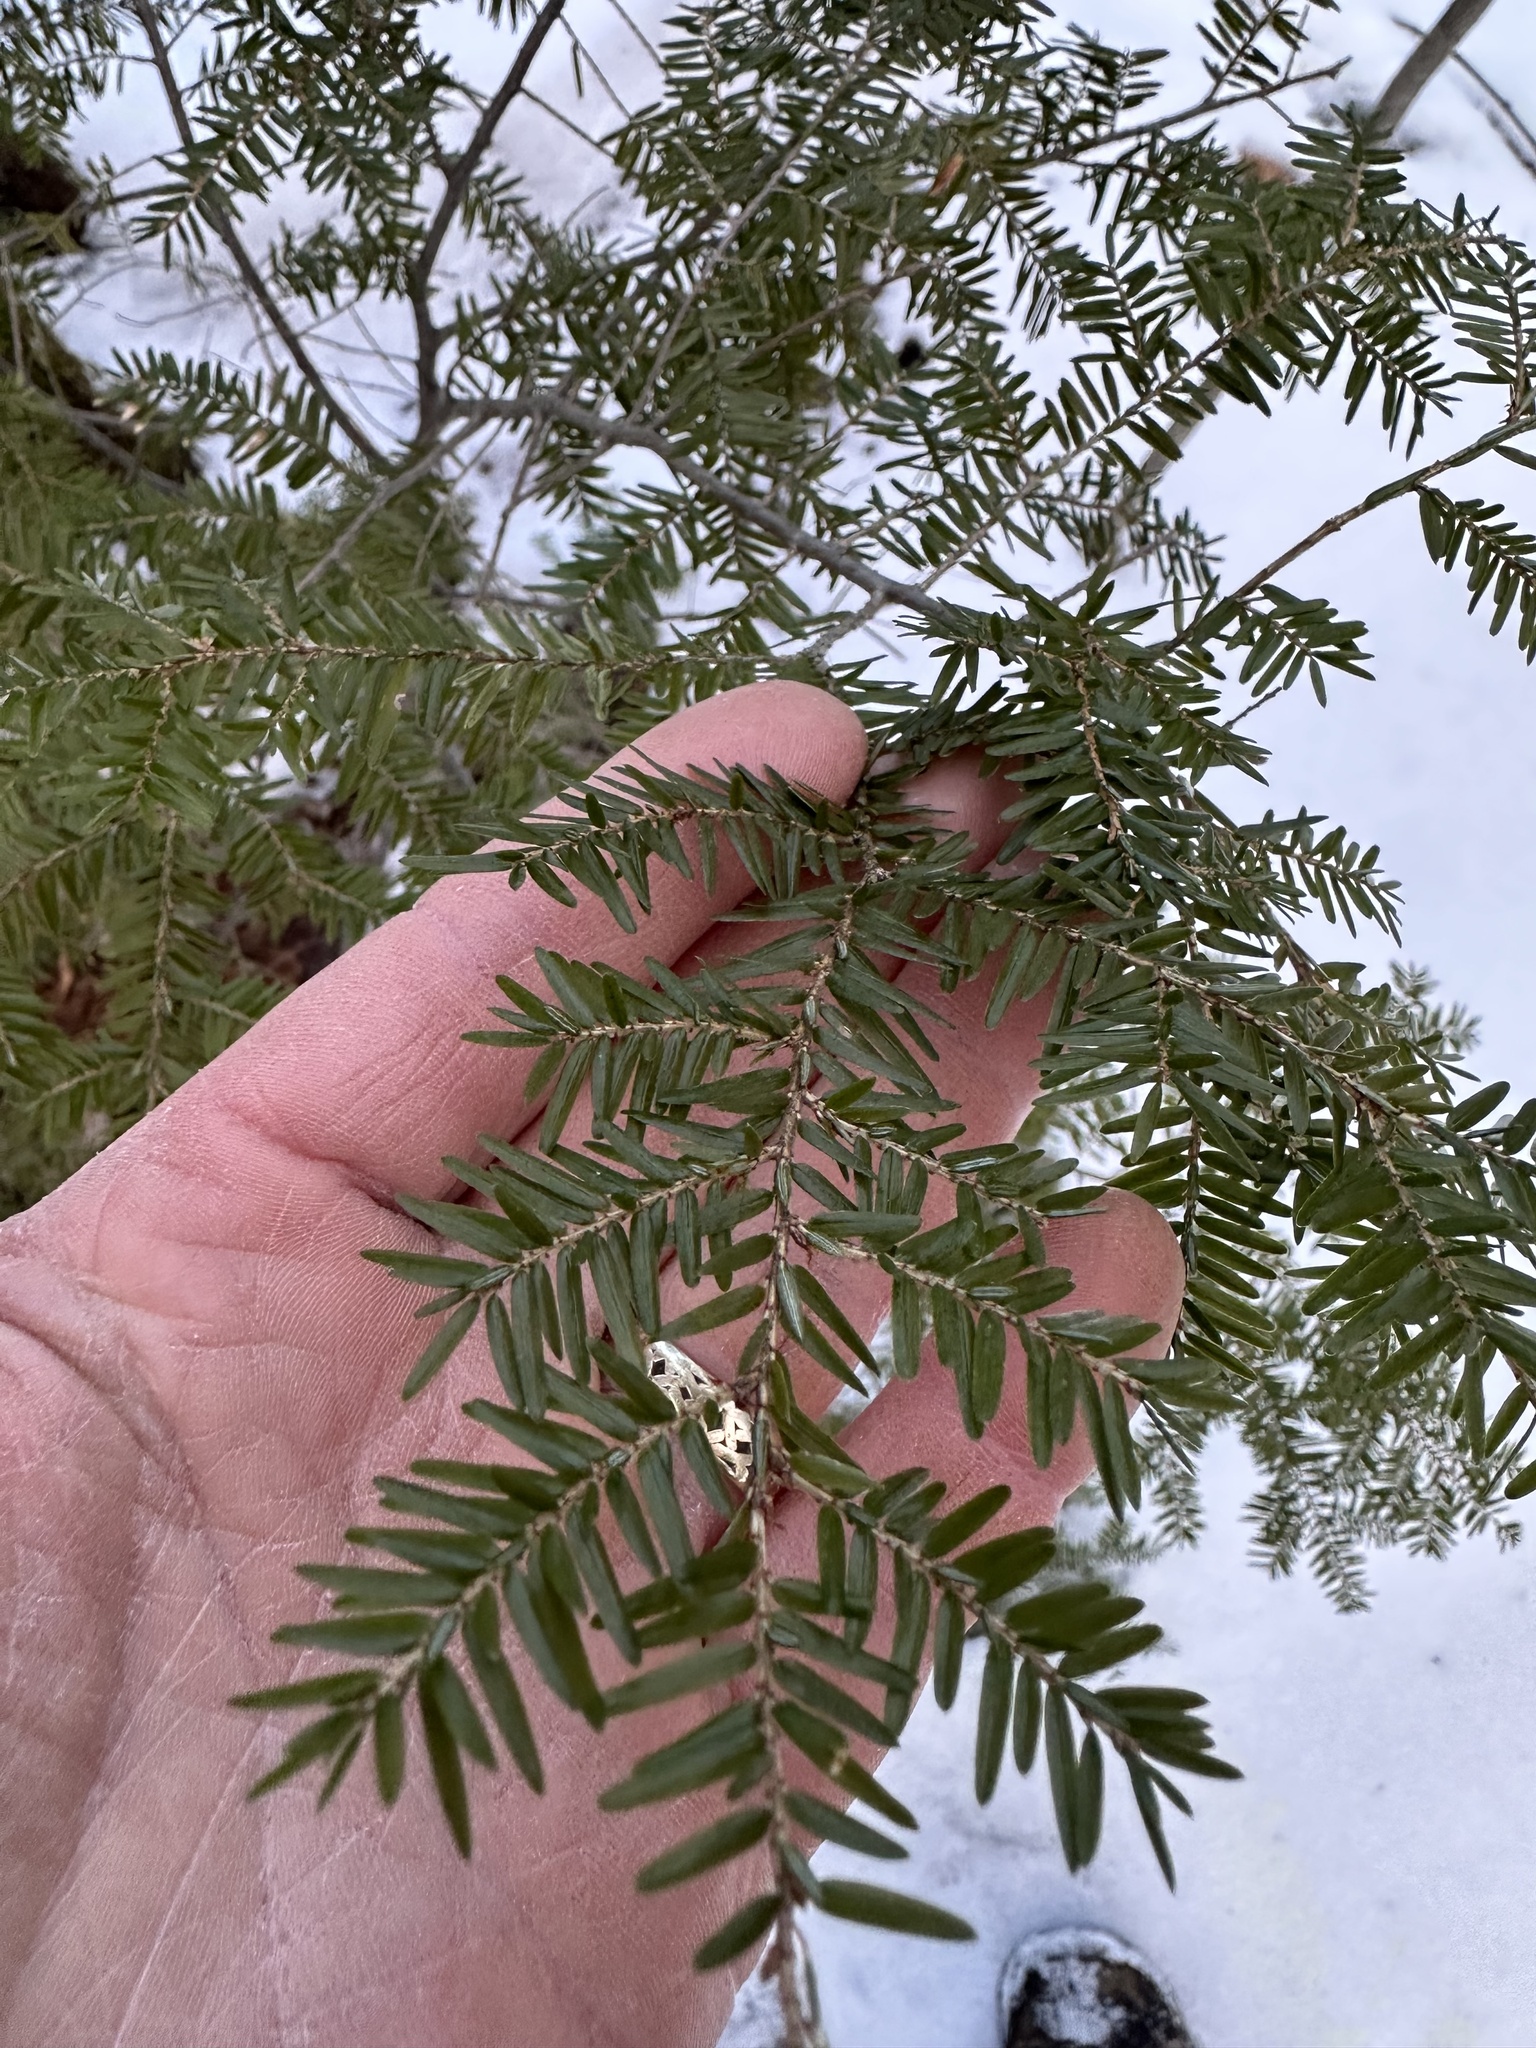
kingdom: Plantae
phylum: Tracheophyta
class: Pinopsida
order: Pinales
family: Pinaceae
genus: Tsuga
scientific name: Tsuga canadensis
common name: Eastern hemlock
